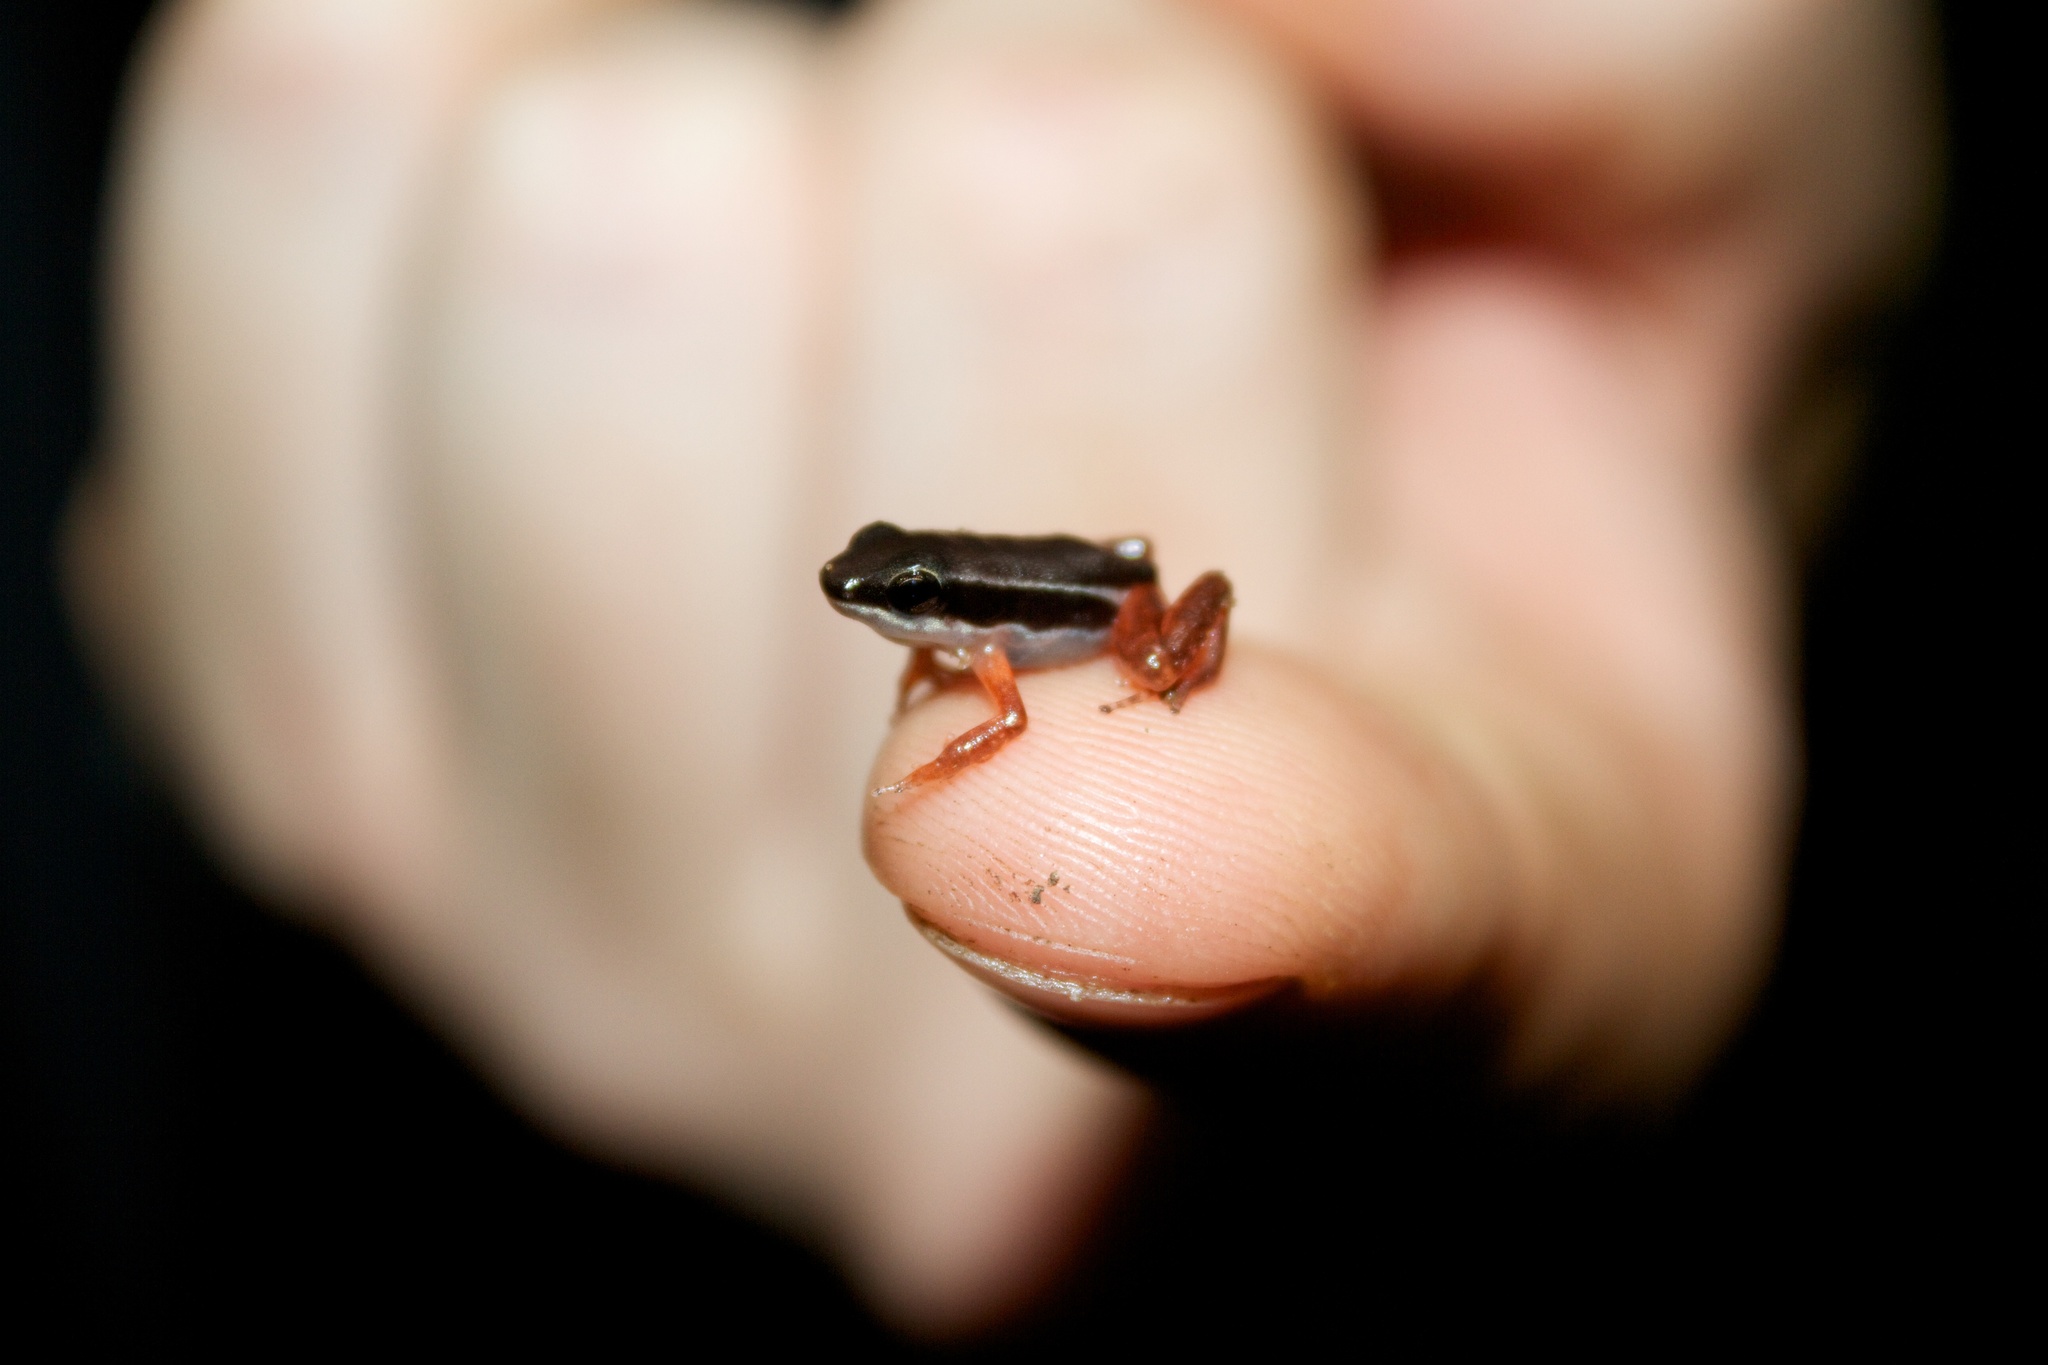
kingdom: Animalia
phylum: Chordata
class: Amphibia
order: Anura
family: Dendrobatidae
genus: Silverstoneia
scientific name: Silverstoneia flotator
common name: Rainforest rocket frog
